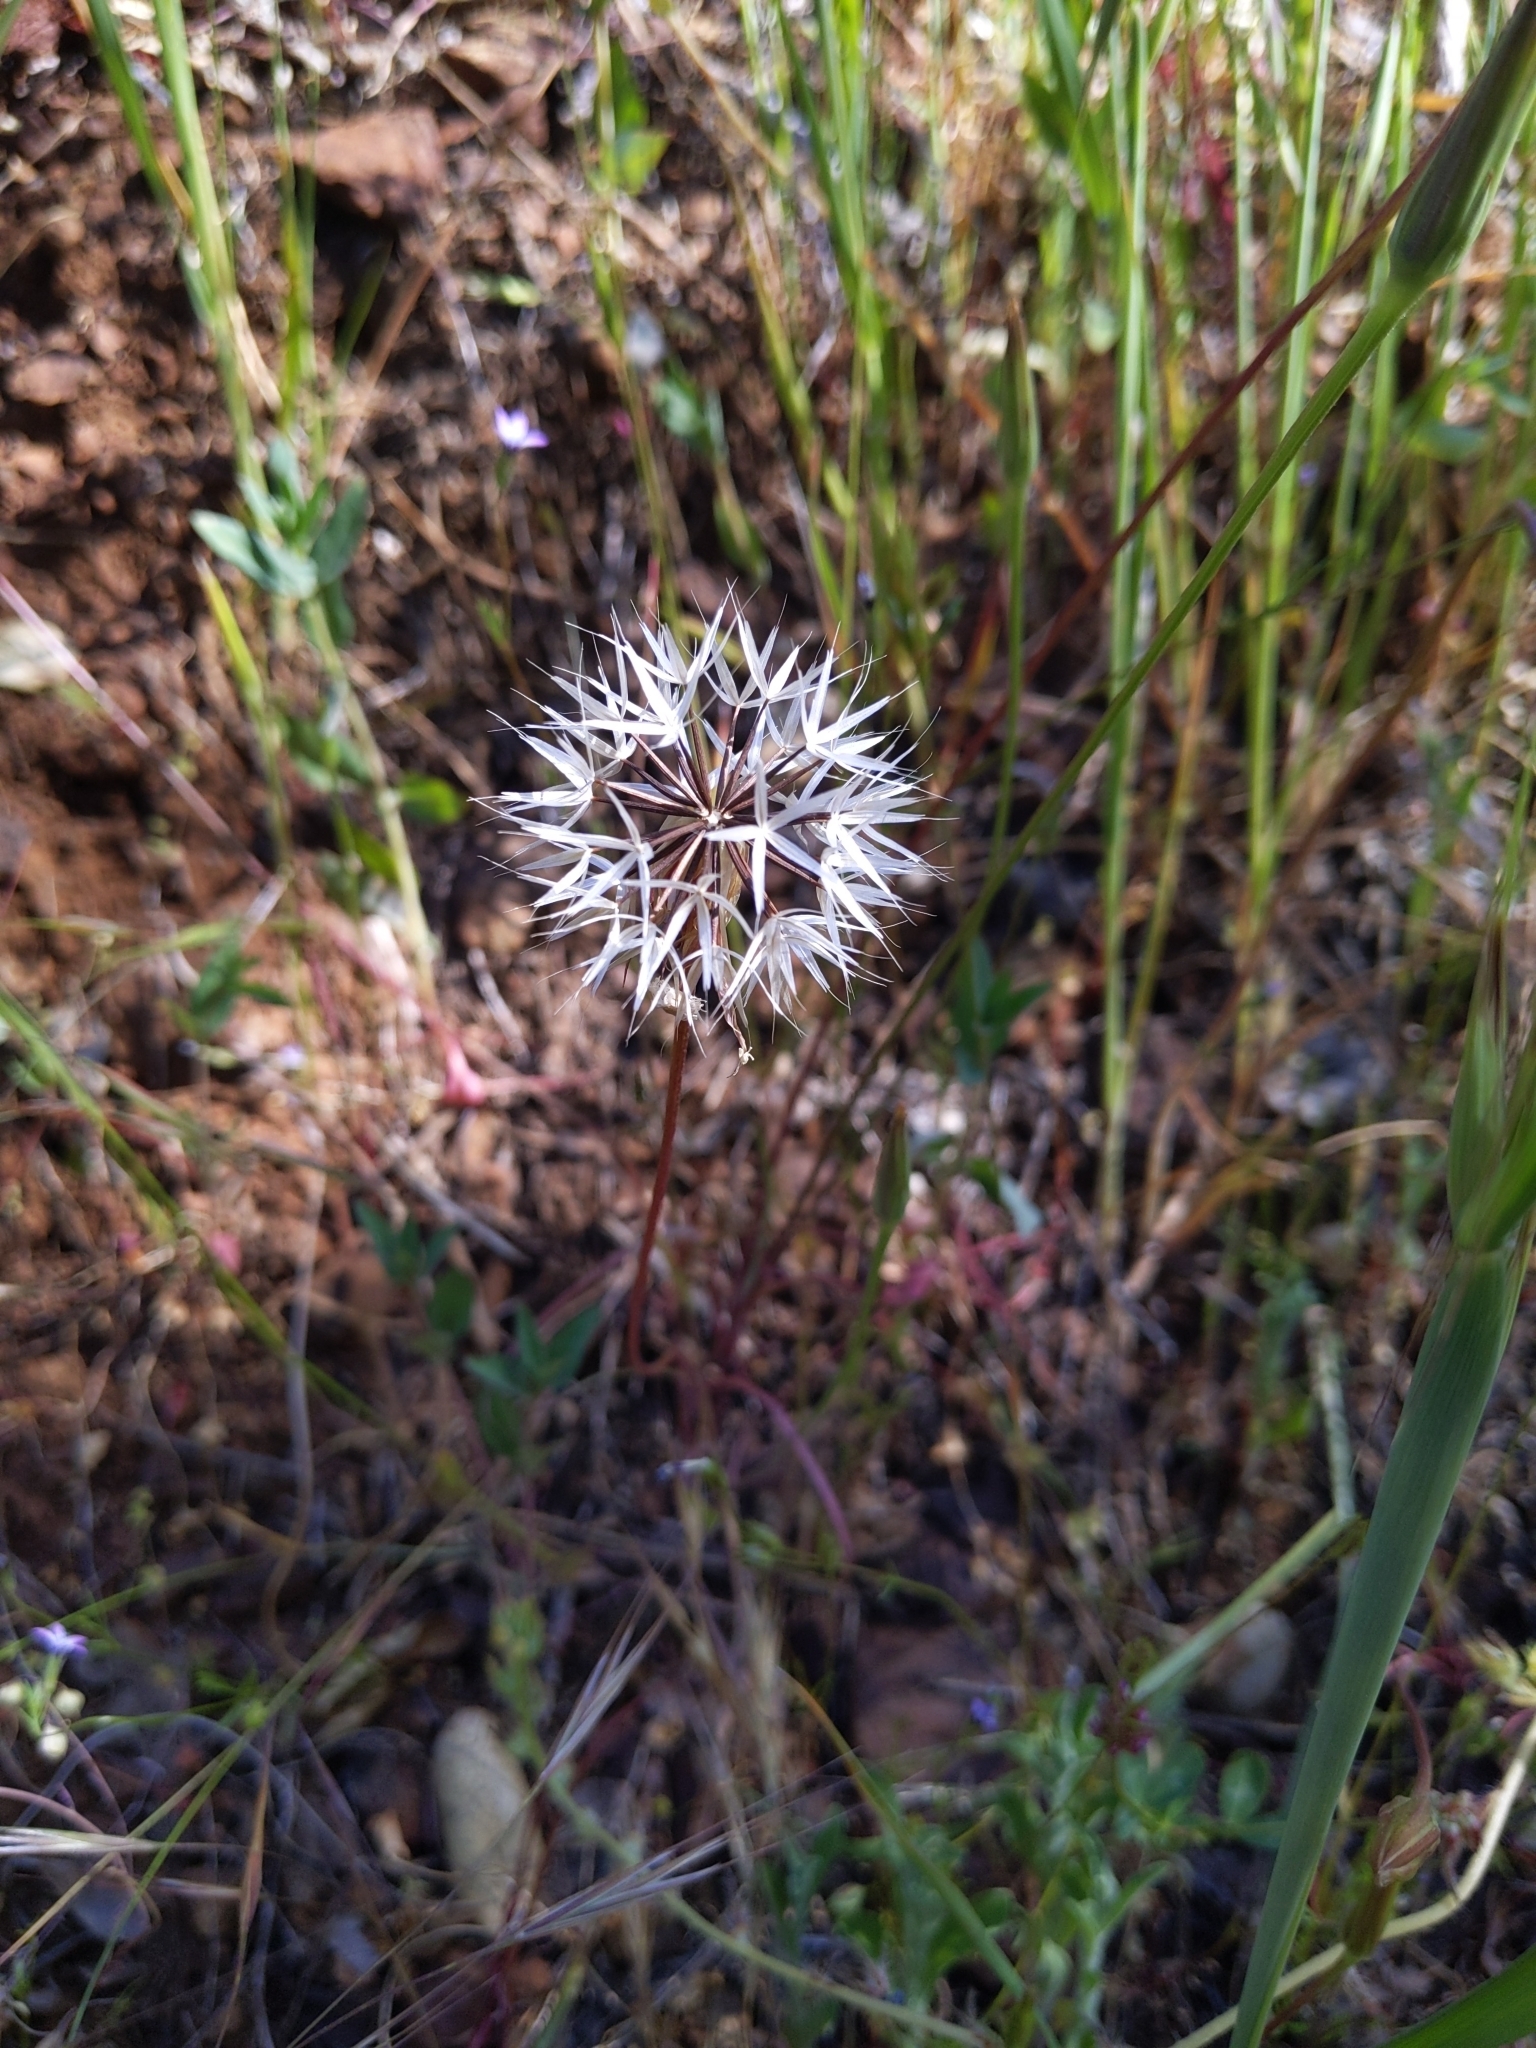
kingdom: Plantae
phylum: Tracheophyta
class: Magnoliopsida
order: Asterales
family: Asteraceae
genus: Microseris
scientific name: Microseris lindleyi
